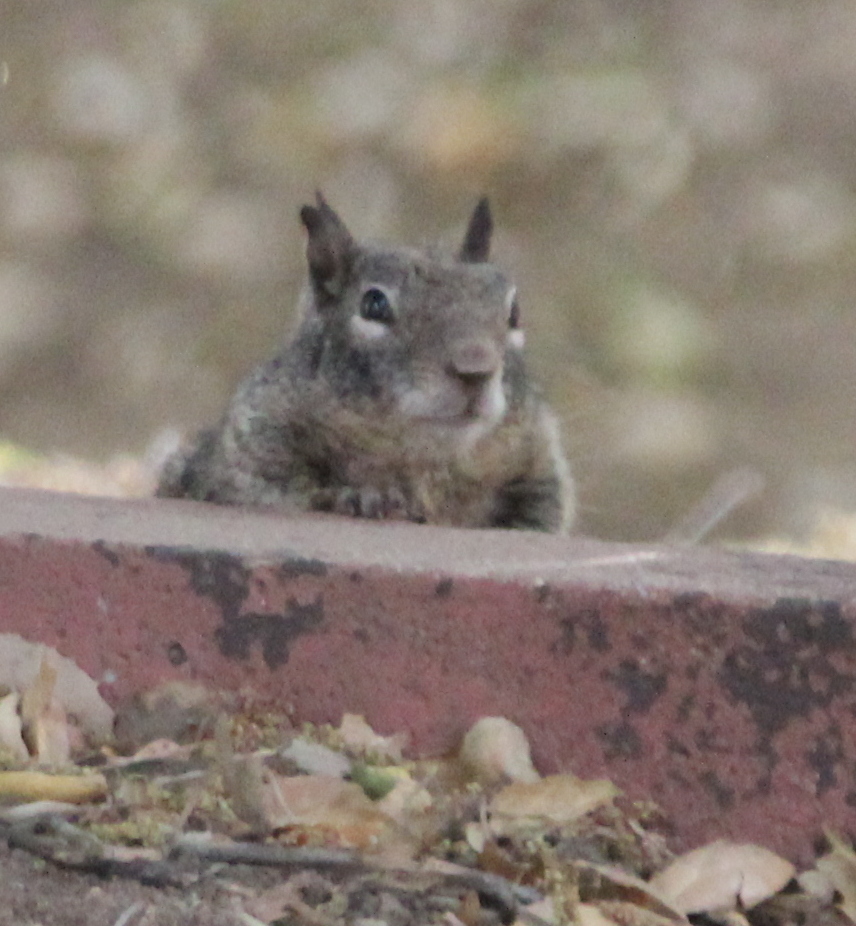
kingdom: Animalia
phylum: Chordata
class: Mammalia
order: Rodentia
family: Sciuridae
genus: Otospermophilus
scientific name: Otospermophilus beecheyi
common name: California ground squirrel
